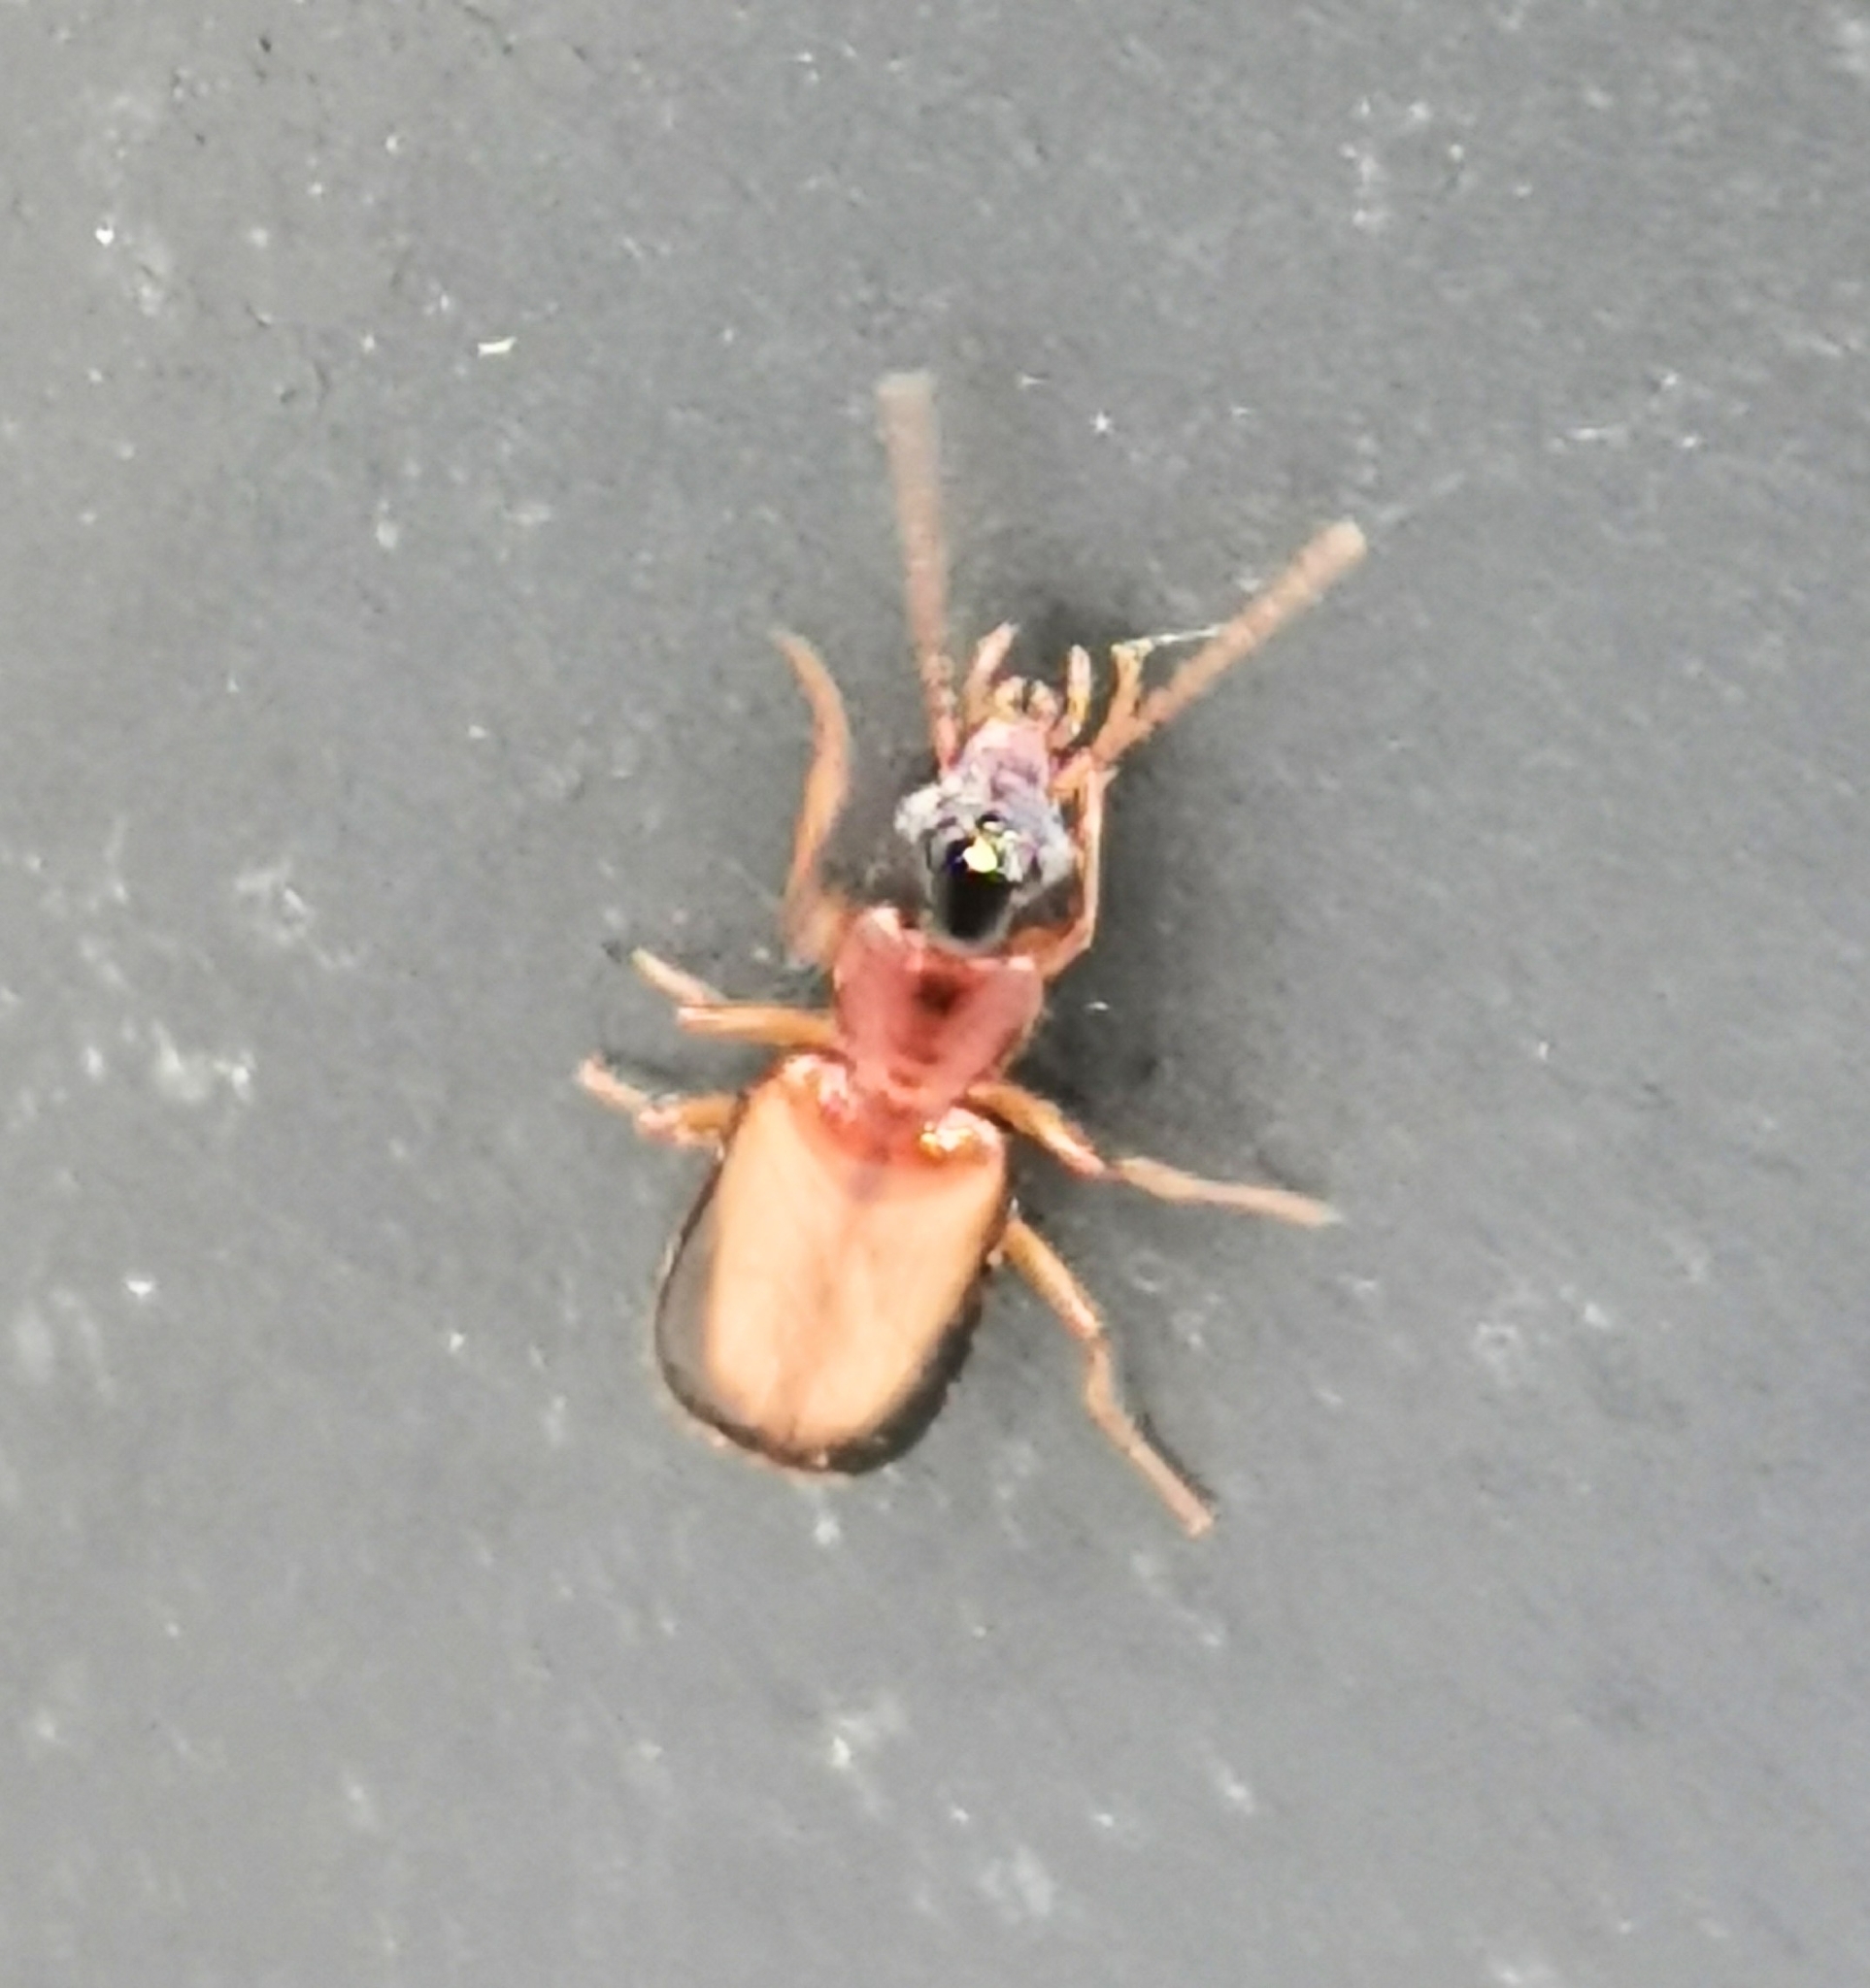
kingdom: Animalia
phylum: Arthropoda
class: Insecta
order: Coleoptera
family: Carabidae
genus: Dromius
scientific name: Dromius schneideri
